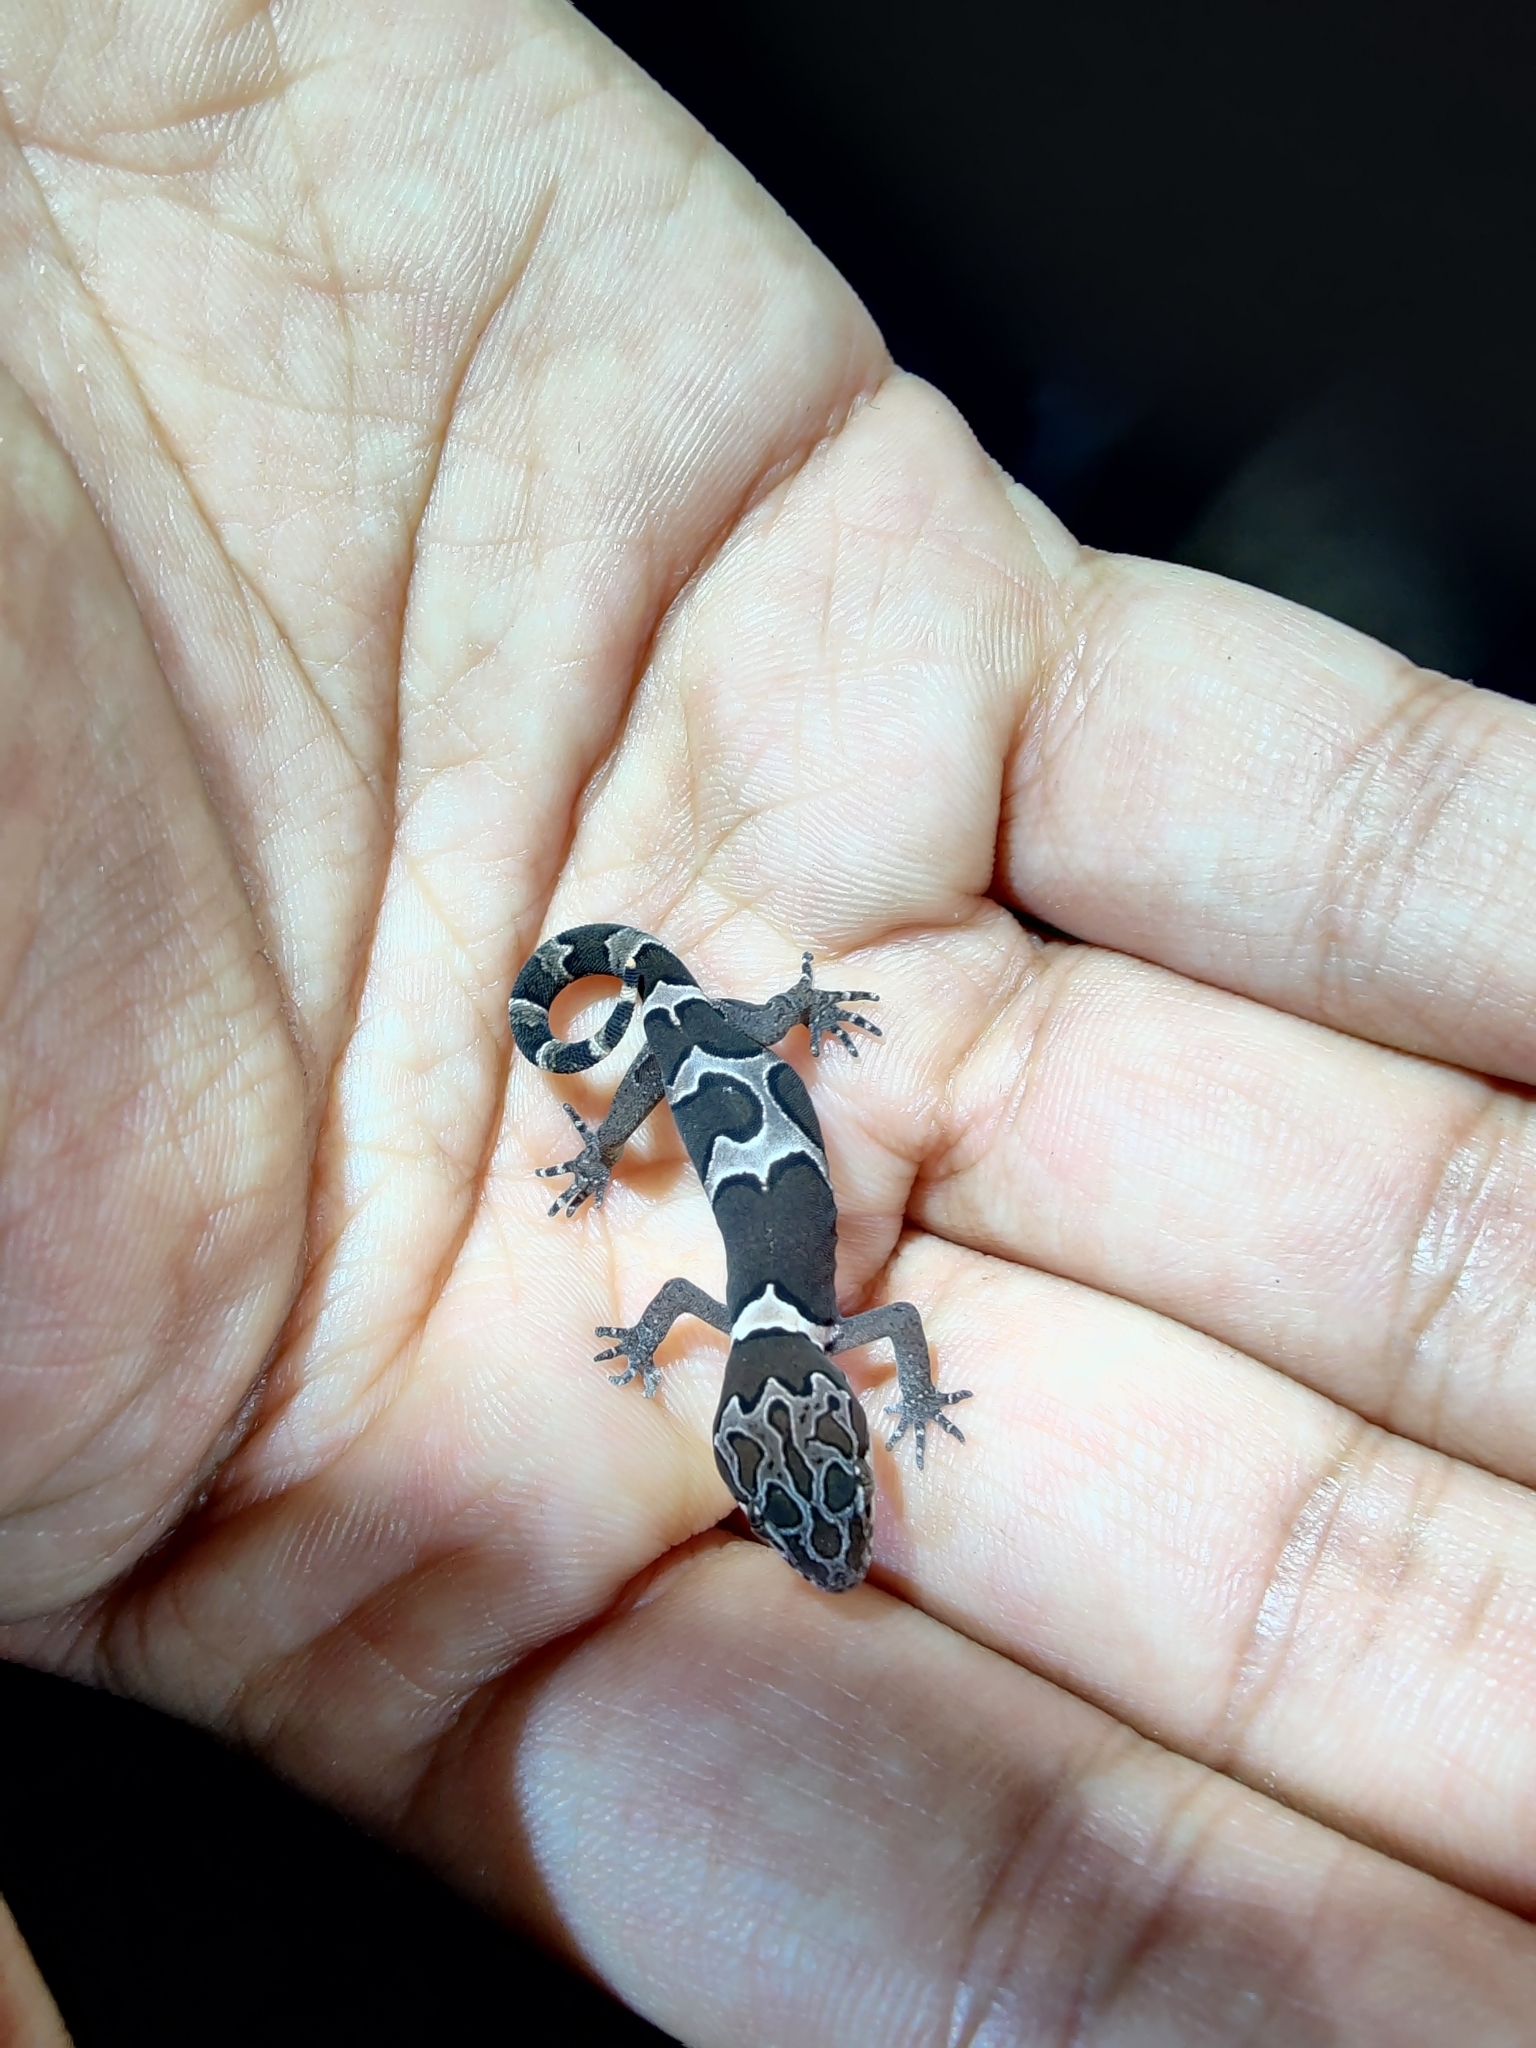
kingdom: Animalia
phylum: Chordata
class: Squamata
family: Gekkonidae
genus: Cyrtodactylus
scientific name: Cyrtodactylus srilekhae
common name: Bangalore geckoella
